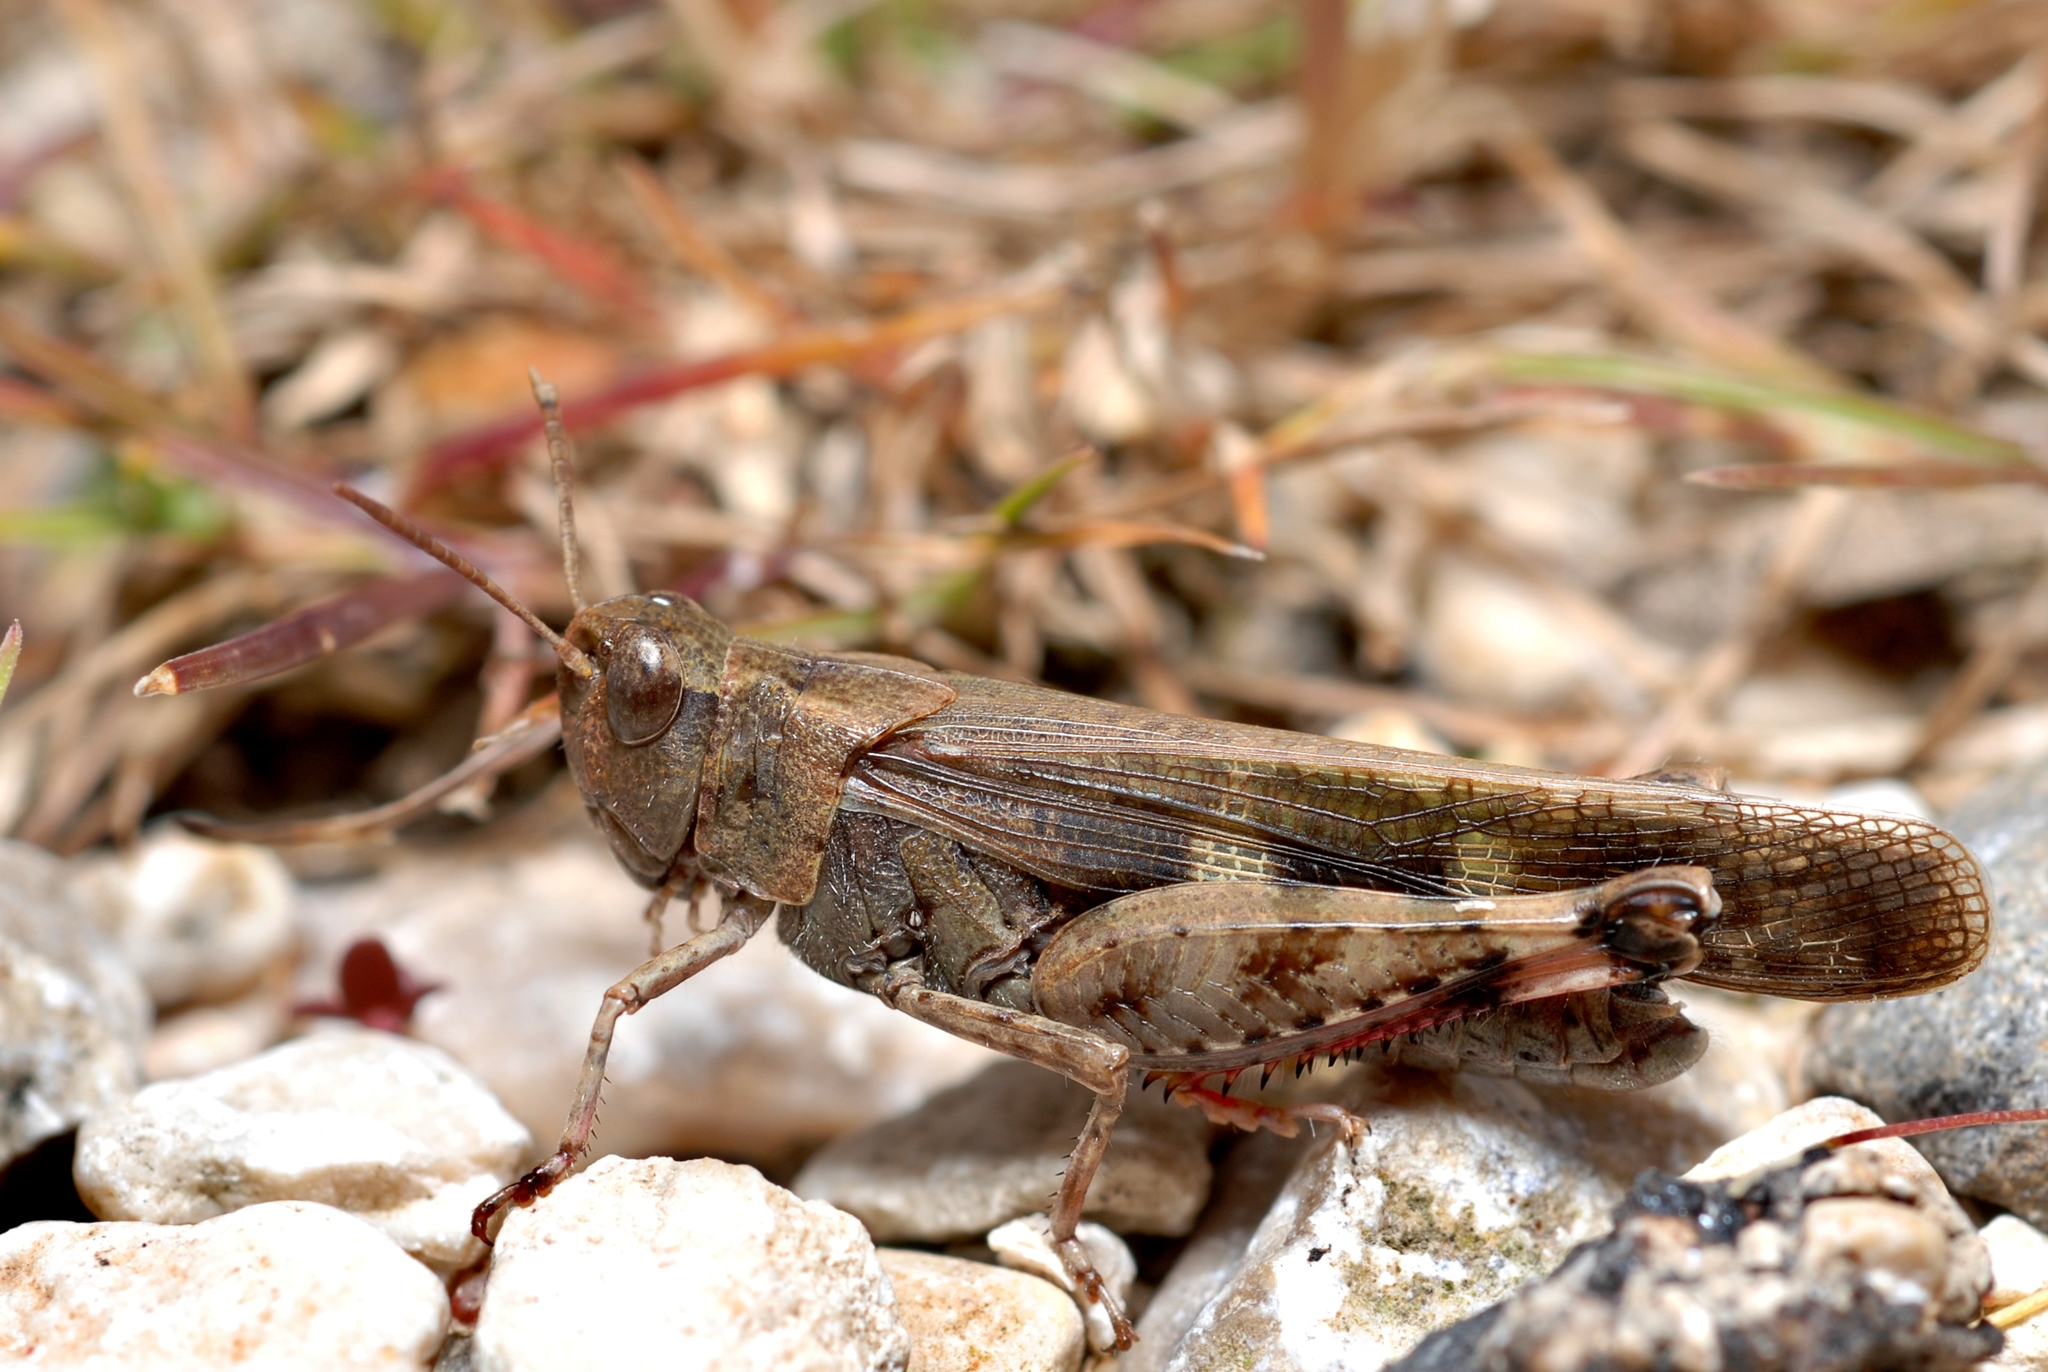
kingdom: Animalia
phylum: Arthropoda
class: Insecta
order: Orthoptera
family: Acrididae
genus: Aiolopus
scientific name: Aiolopus strepens
